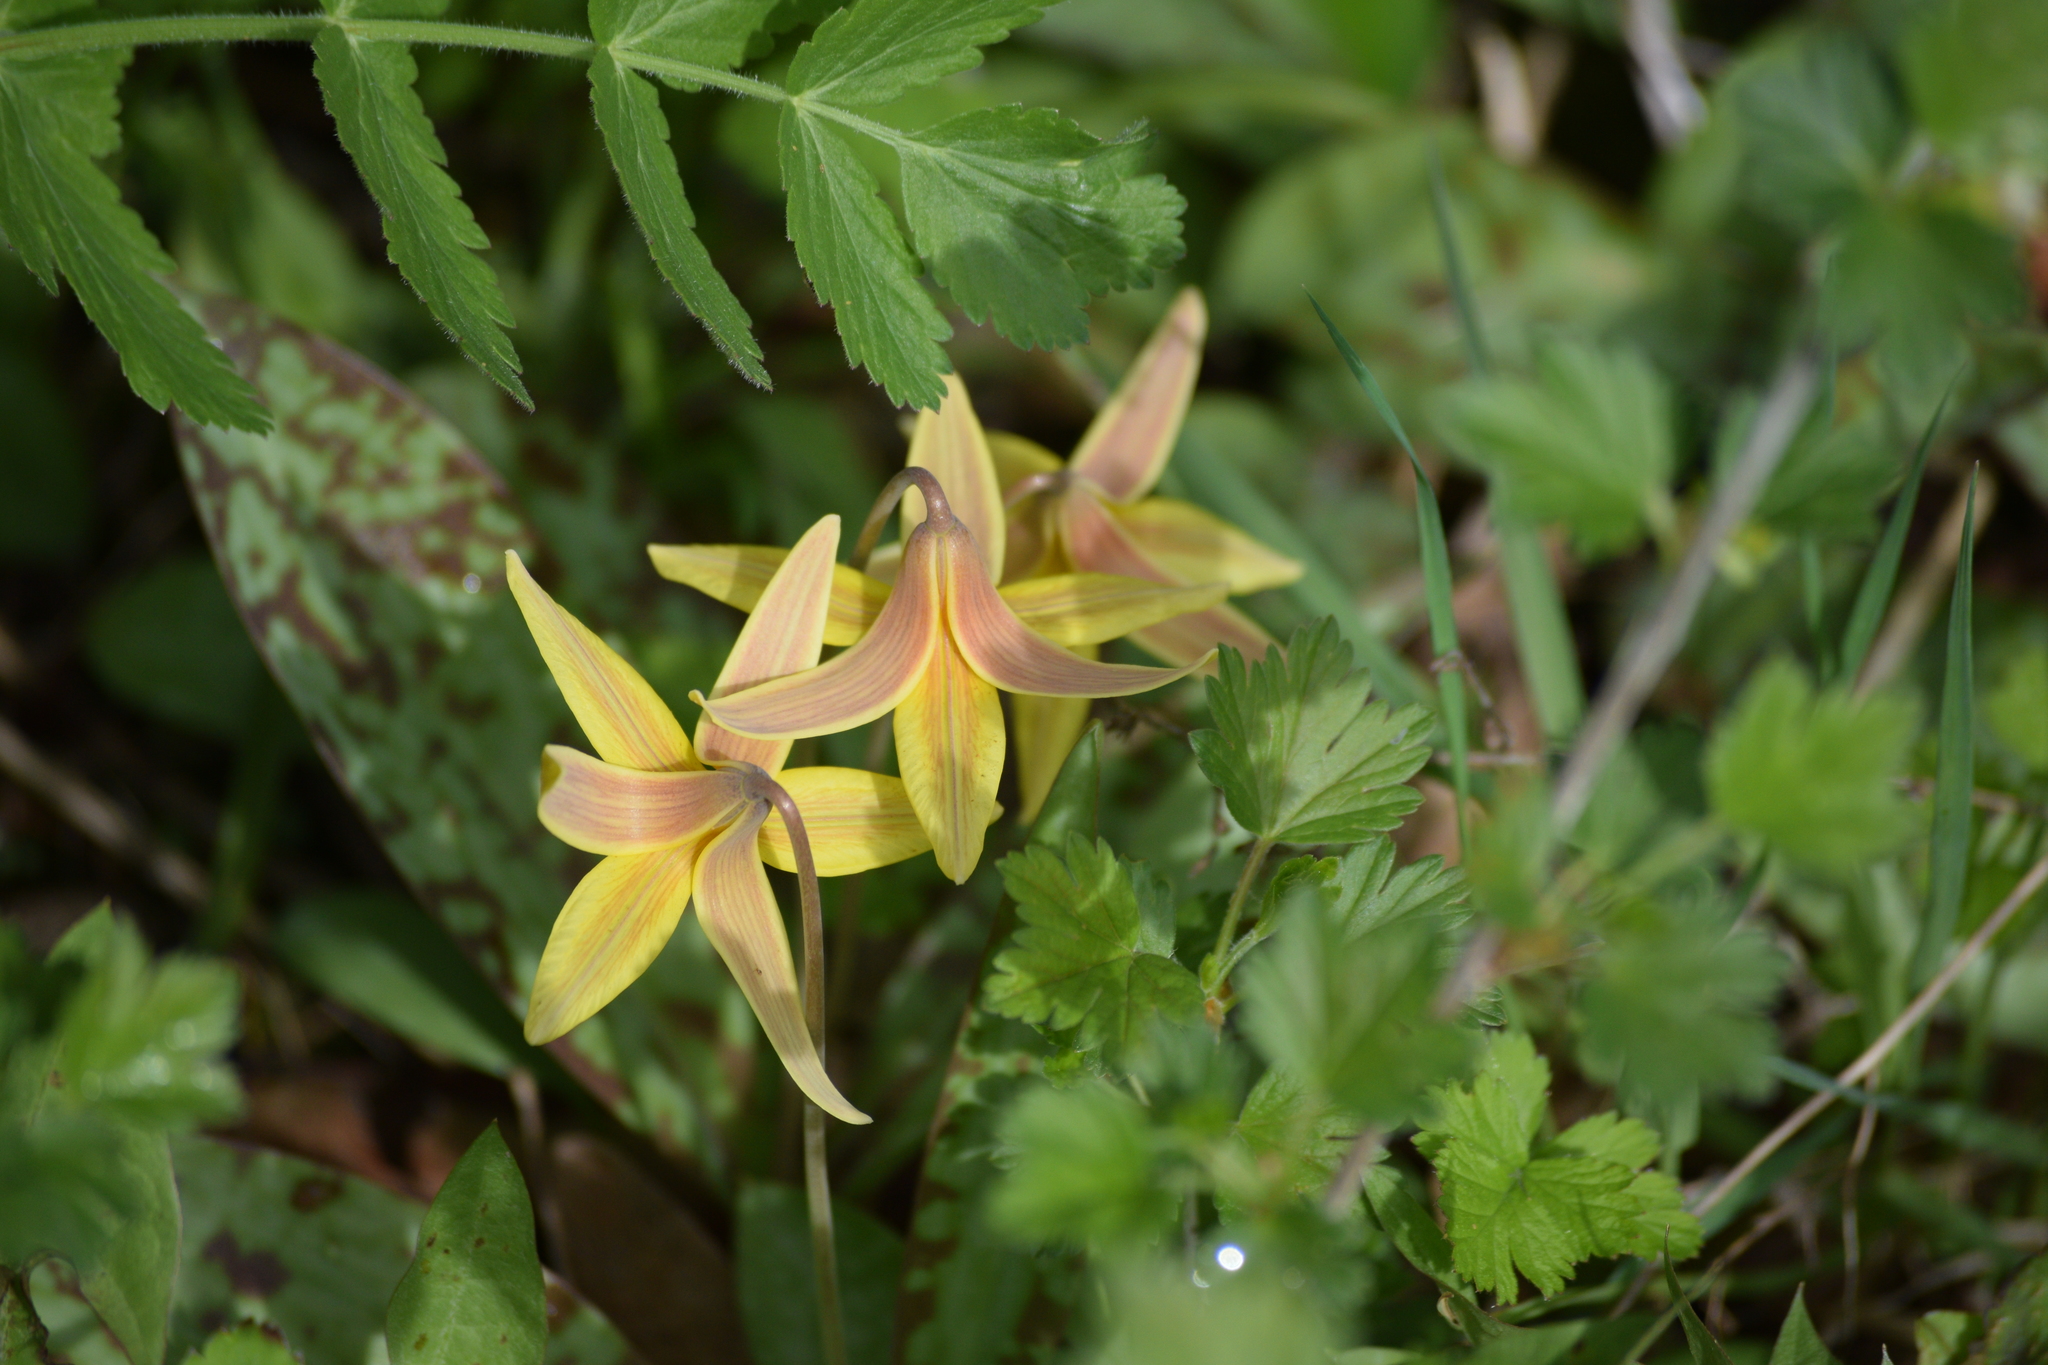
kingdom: Plantae
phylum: Tracheophyta
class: Liliopsida
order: Liliales
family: Liliaceae
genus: Erythronium
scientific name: Erythronium americanum
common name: Yellow adder's-tongue
